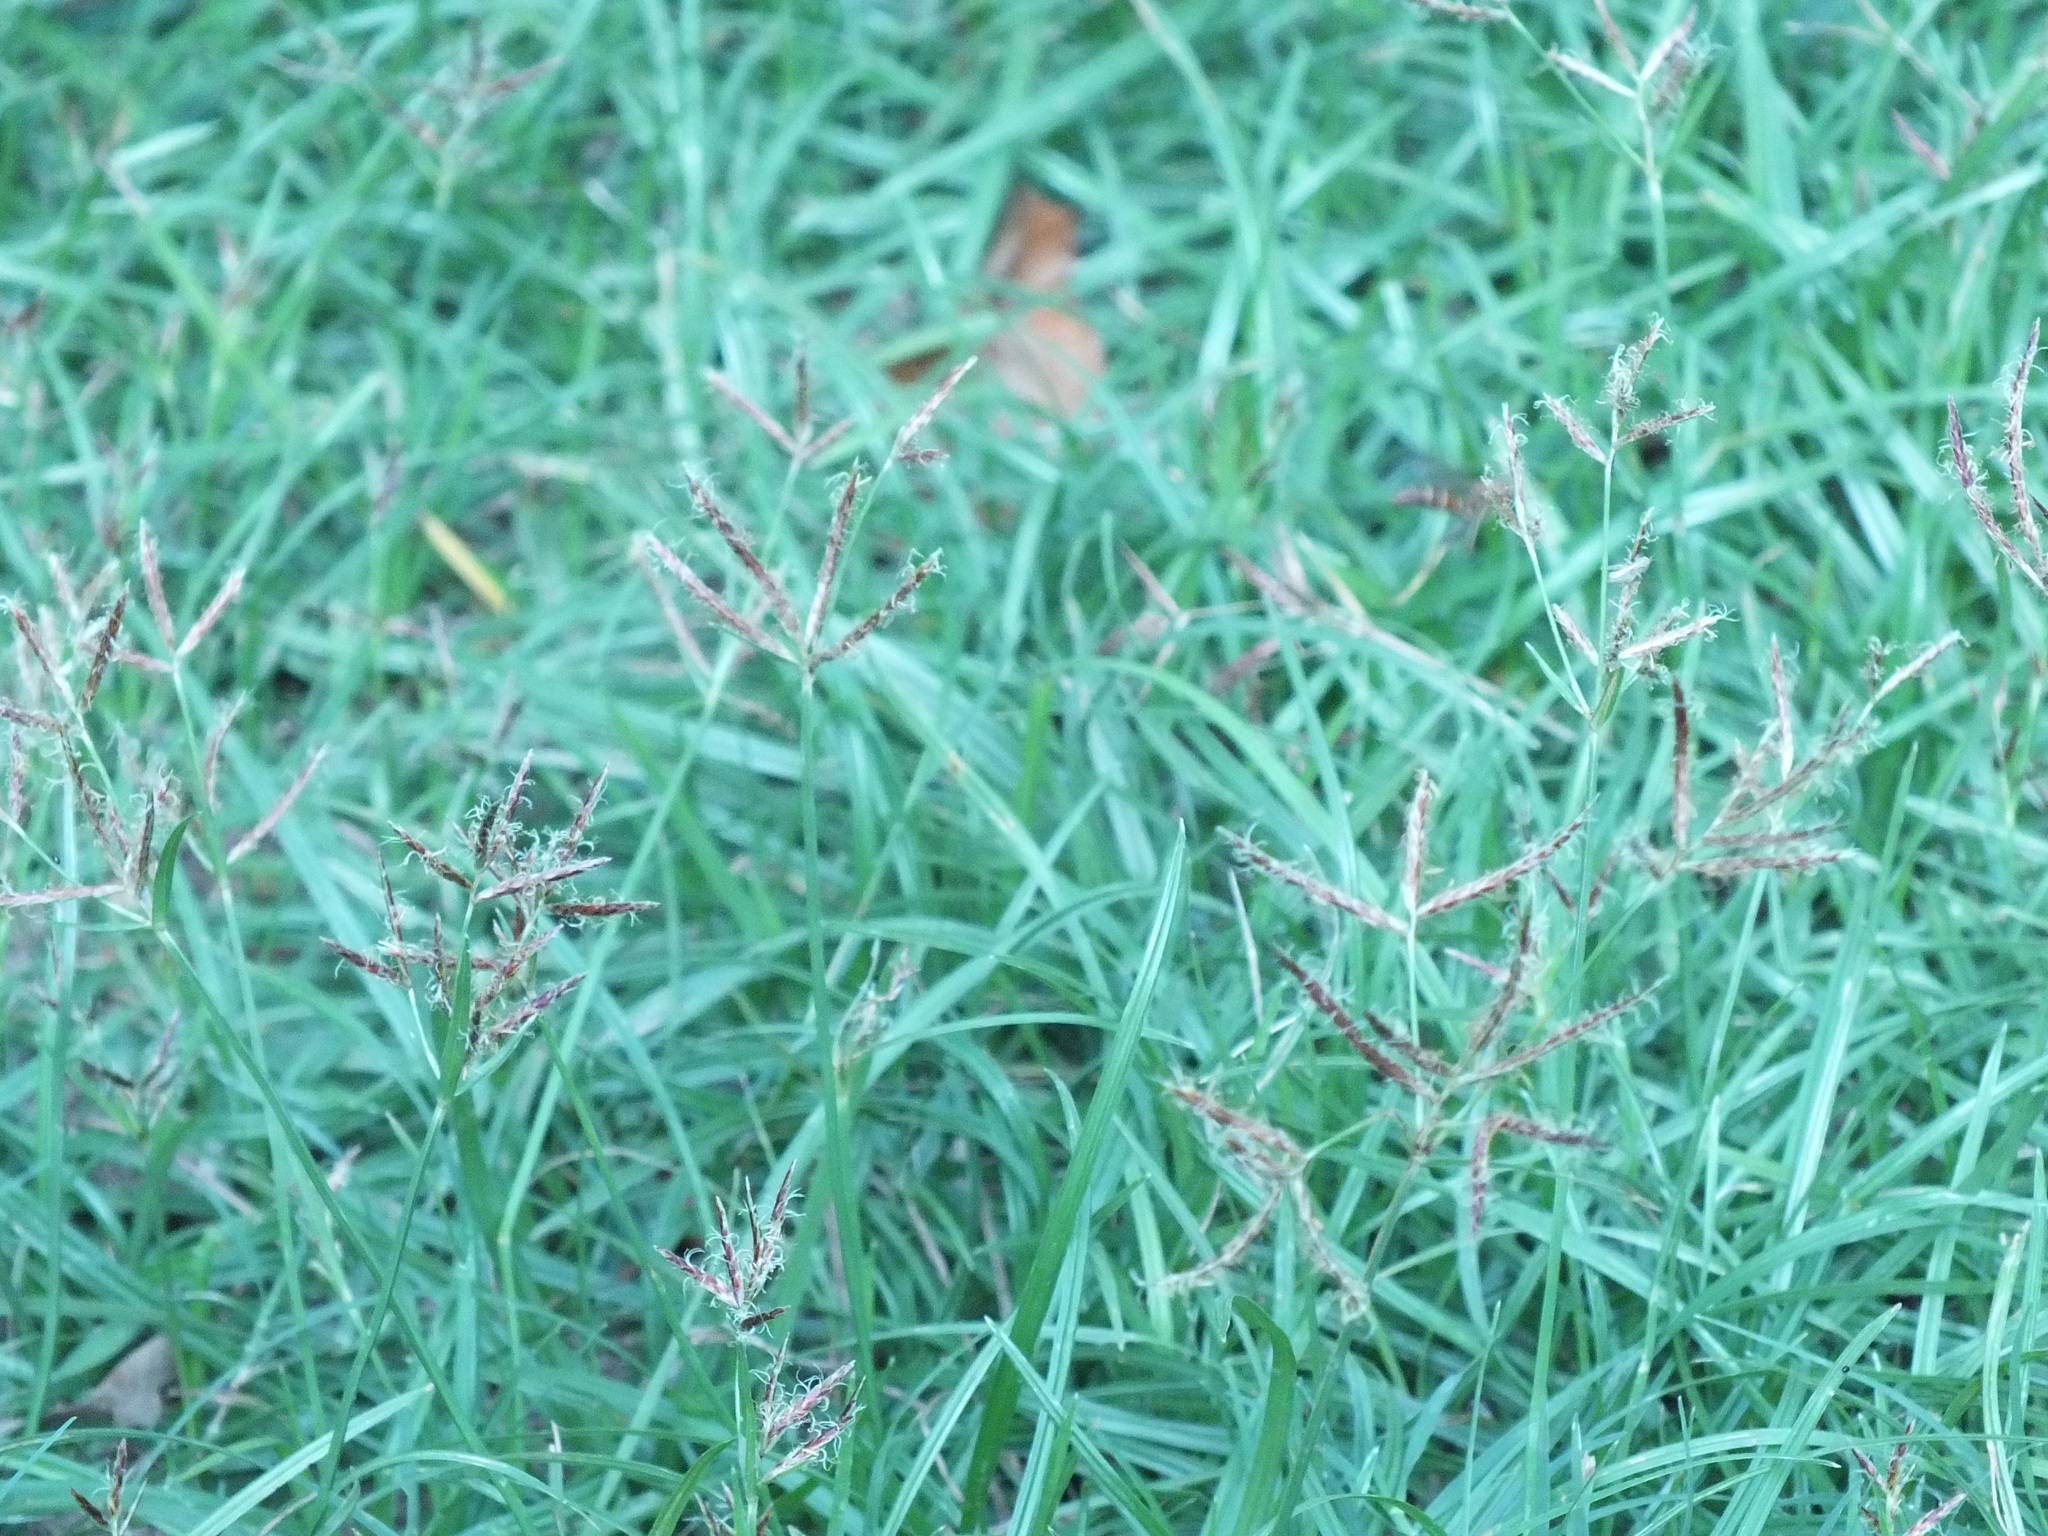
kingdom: Plantae
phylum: Tracheophyta
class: Liliopsida
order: Poales
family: Cyperaceae
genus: Cyperus
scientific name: Cyperus rotundus
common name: Nutgrass
